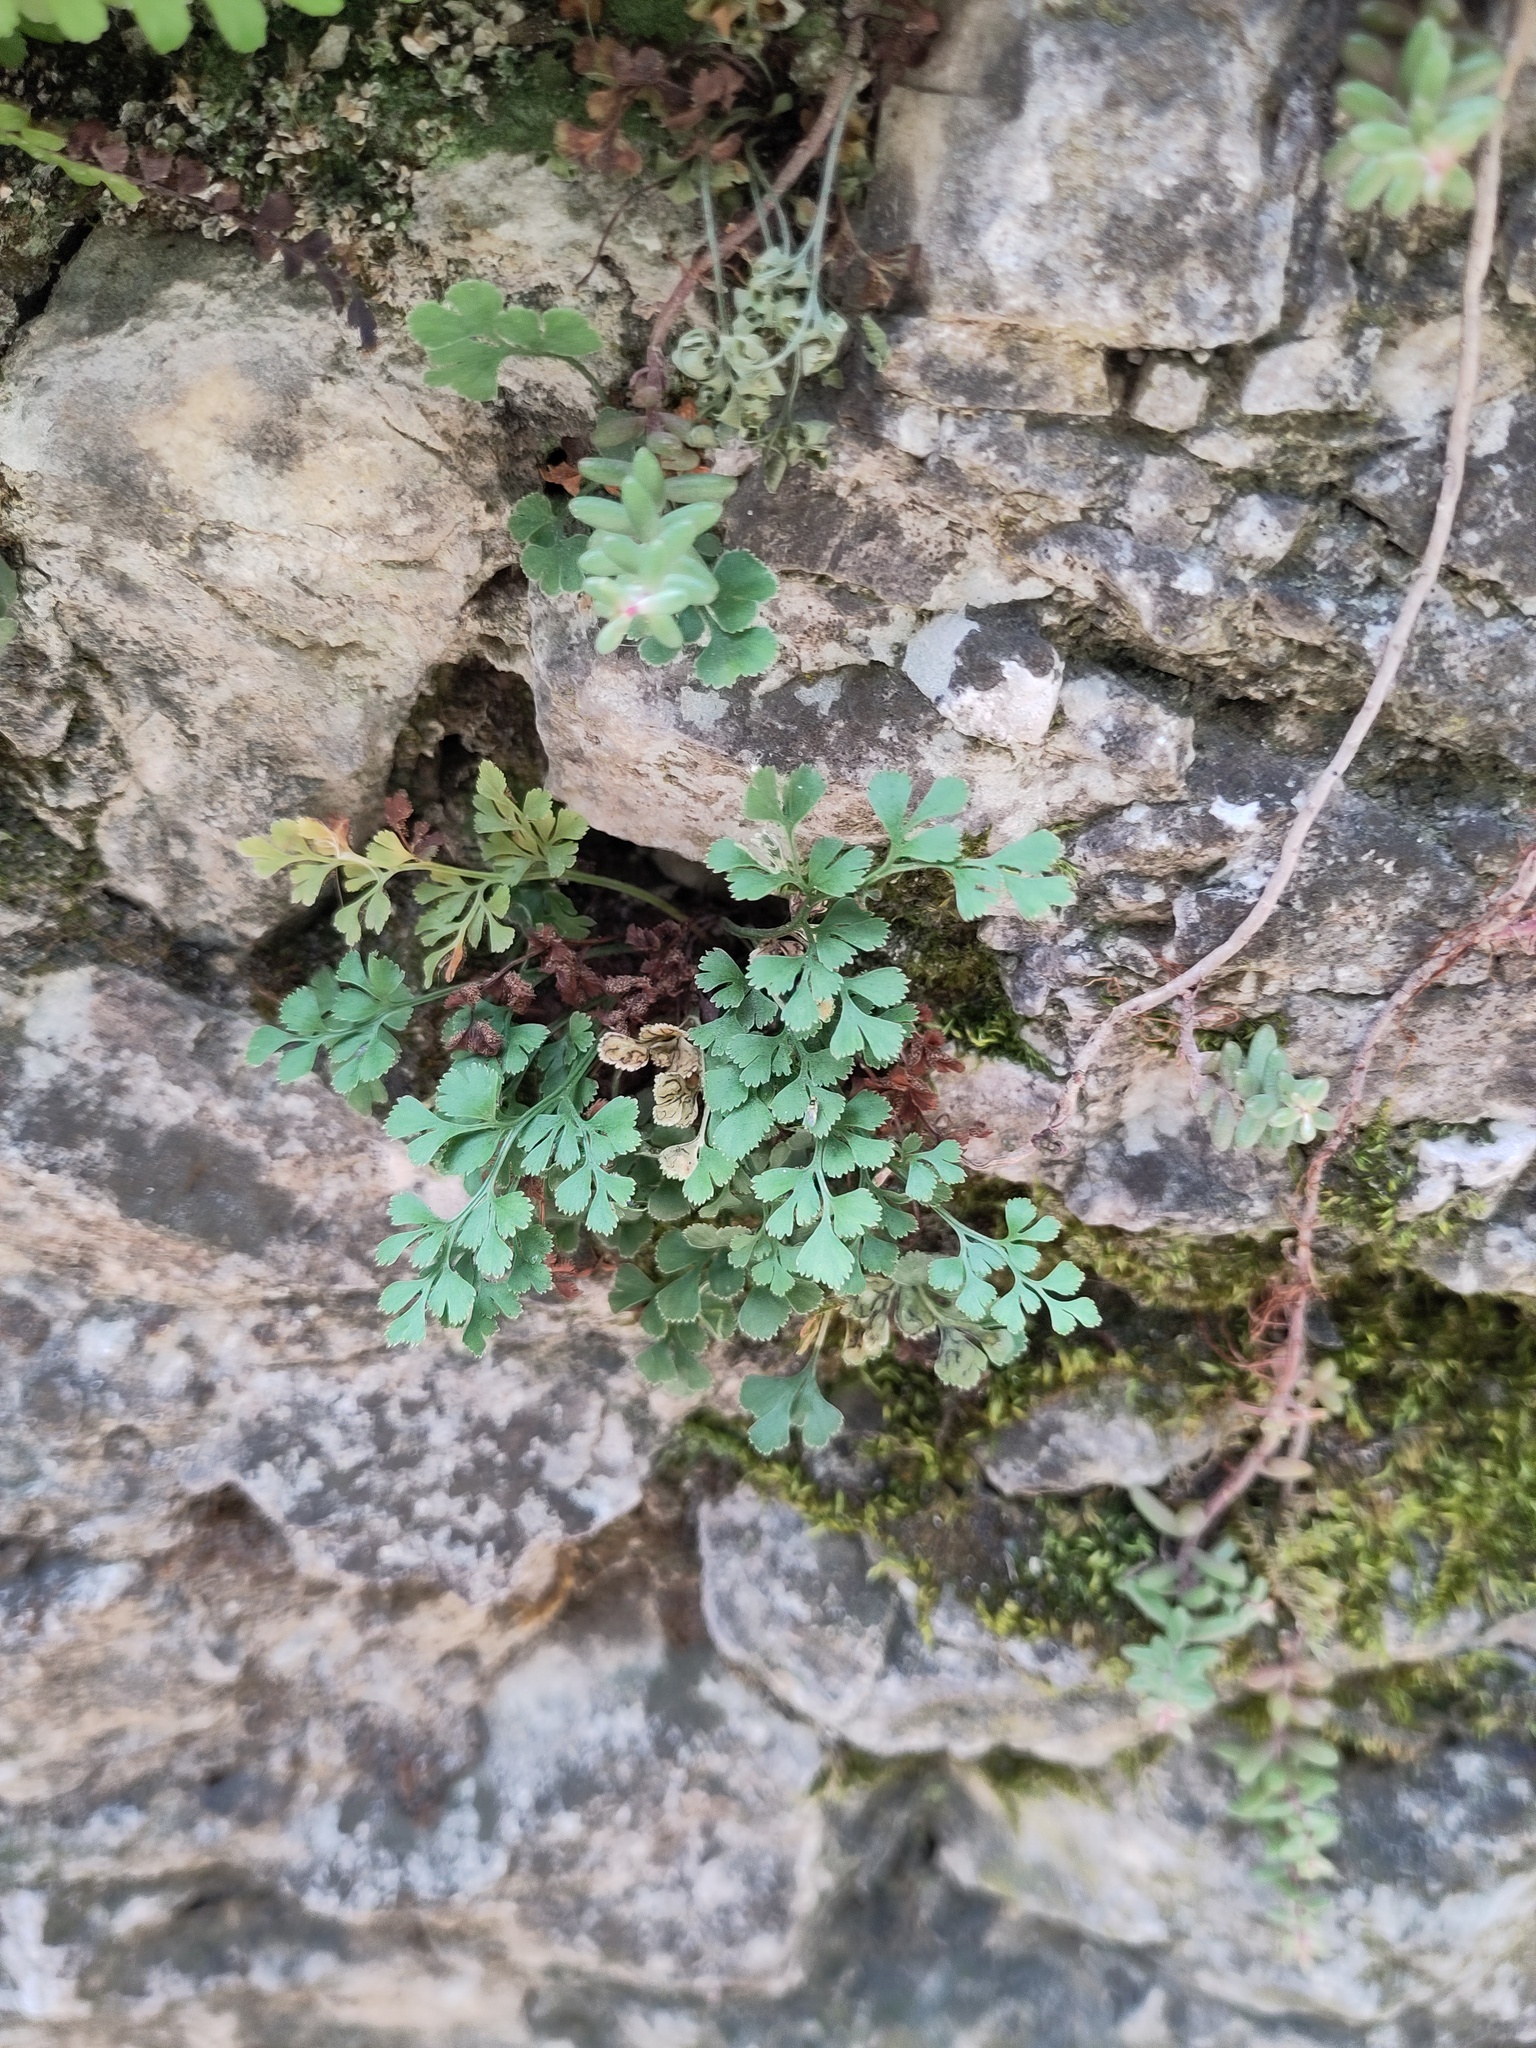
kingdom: Plantae
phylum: Tracheophyta
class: Polypodiopsida
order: Polypodiales
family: Aspleniaceae
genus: Asplenium
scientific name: Asplenium ruta-muraria
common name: Wall-rue
